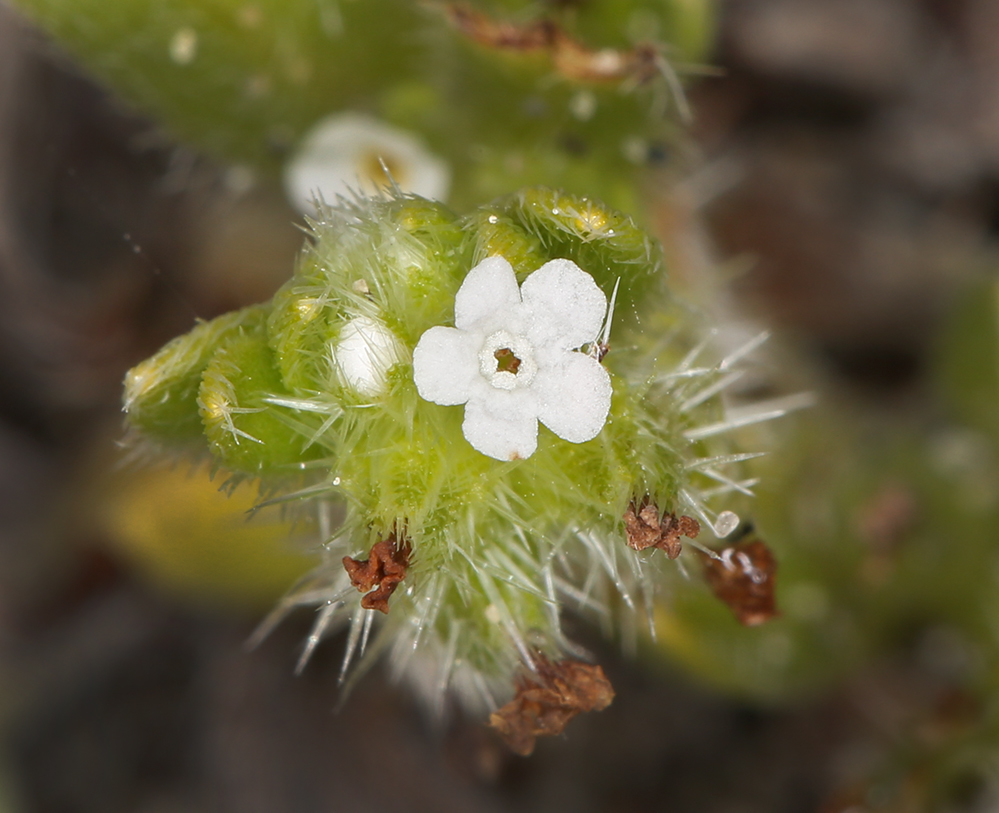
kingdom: Plantae
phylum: Tracheophyta
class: Magnoliopsida
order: Boraginales
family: Boraginaceae
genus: Cryptantha
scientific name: Cryptantha leiocarpa
